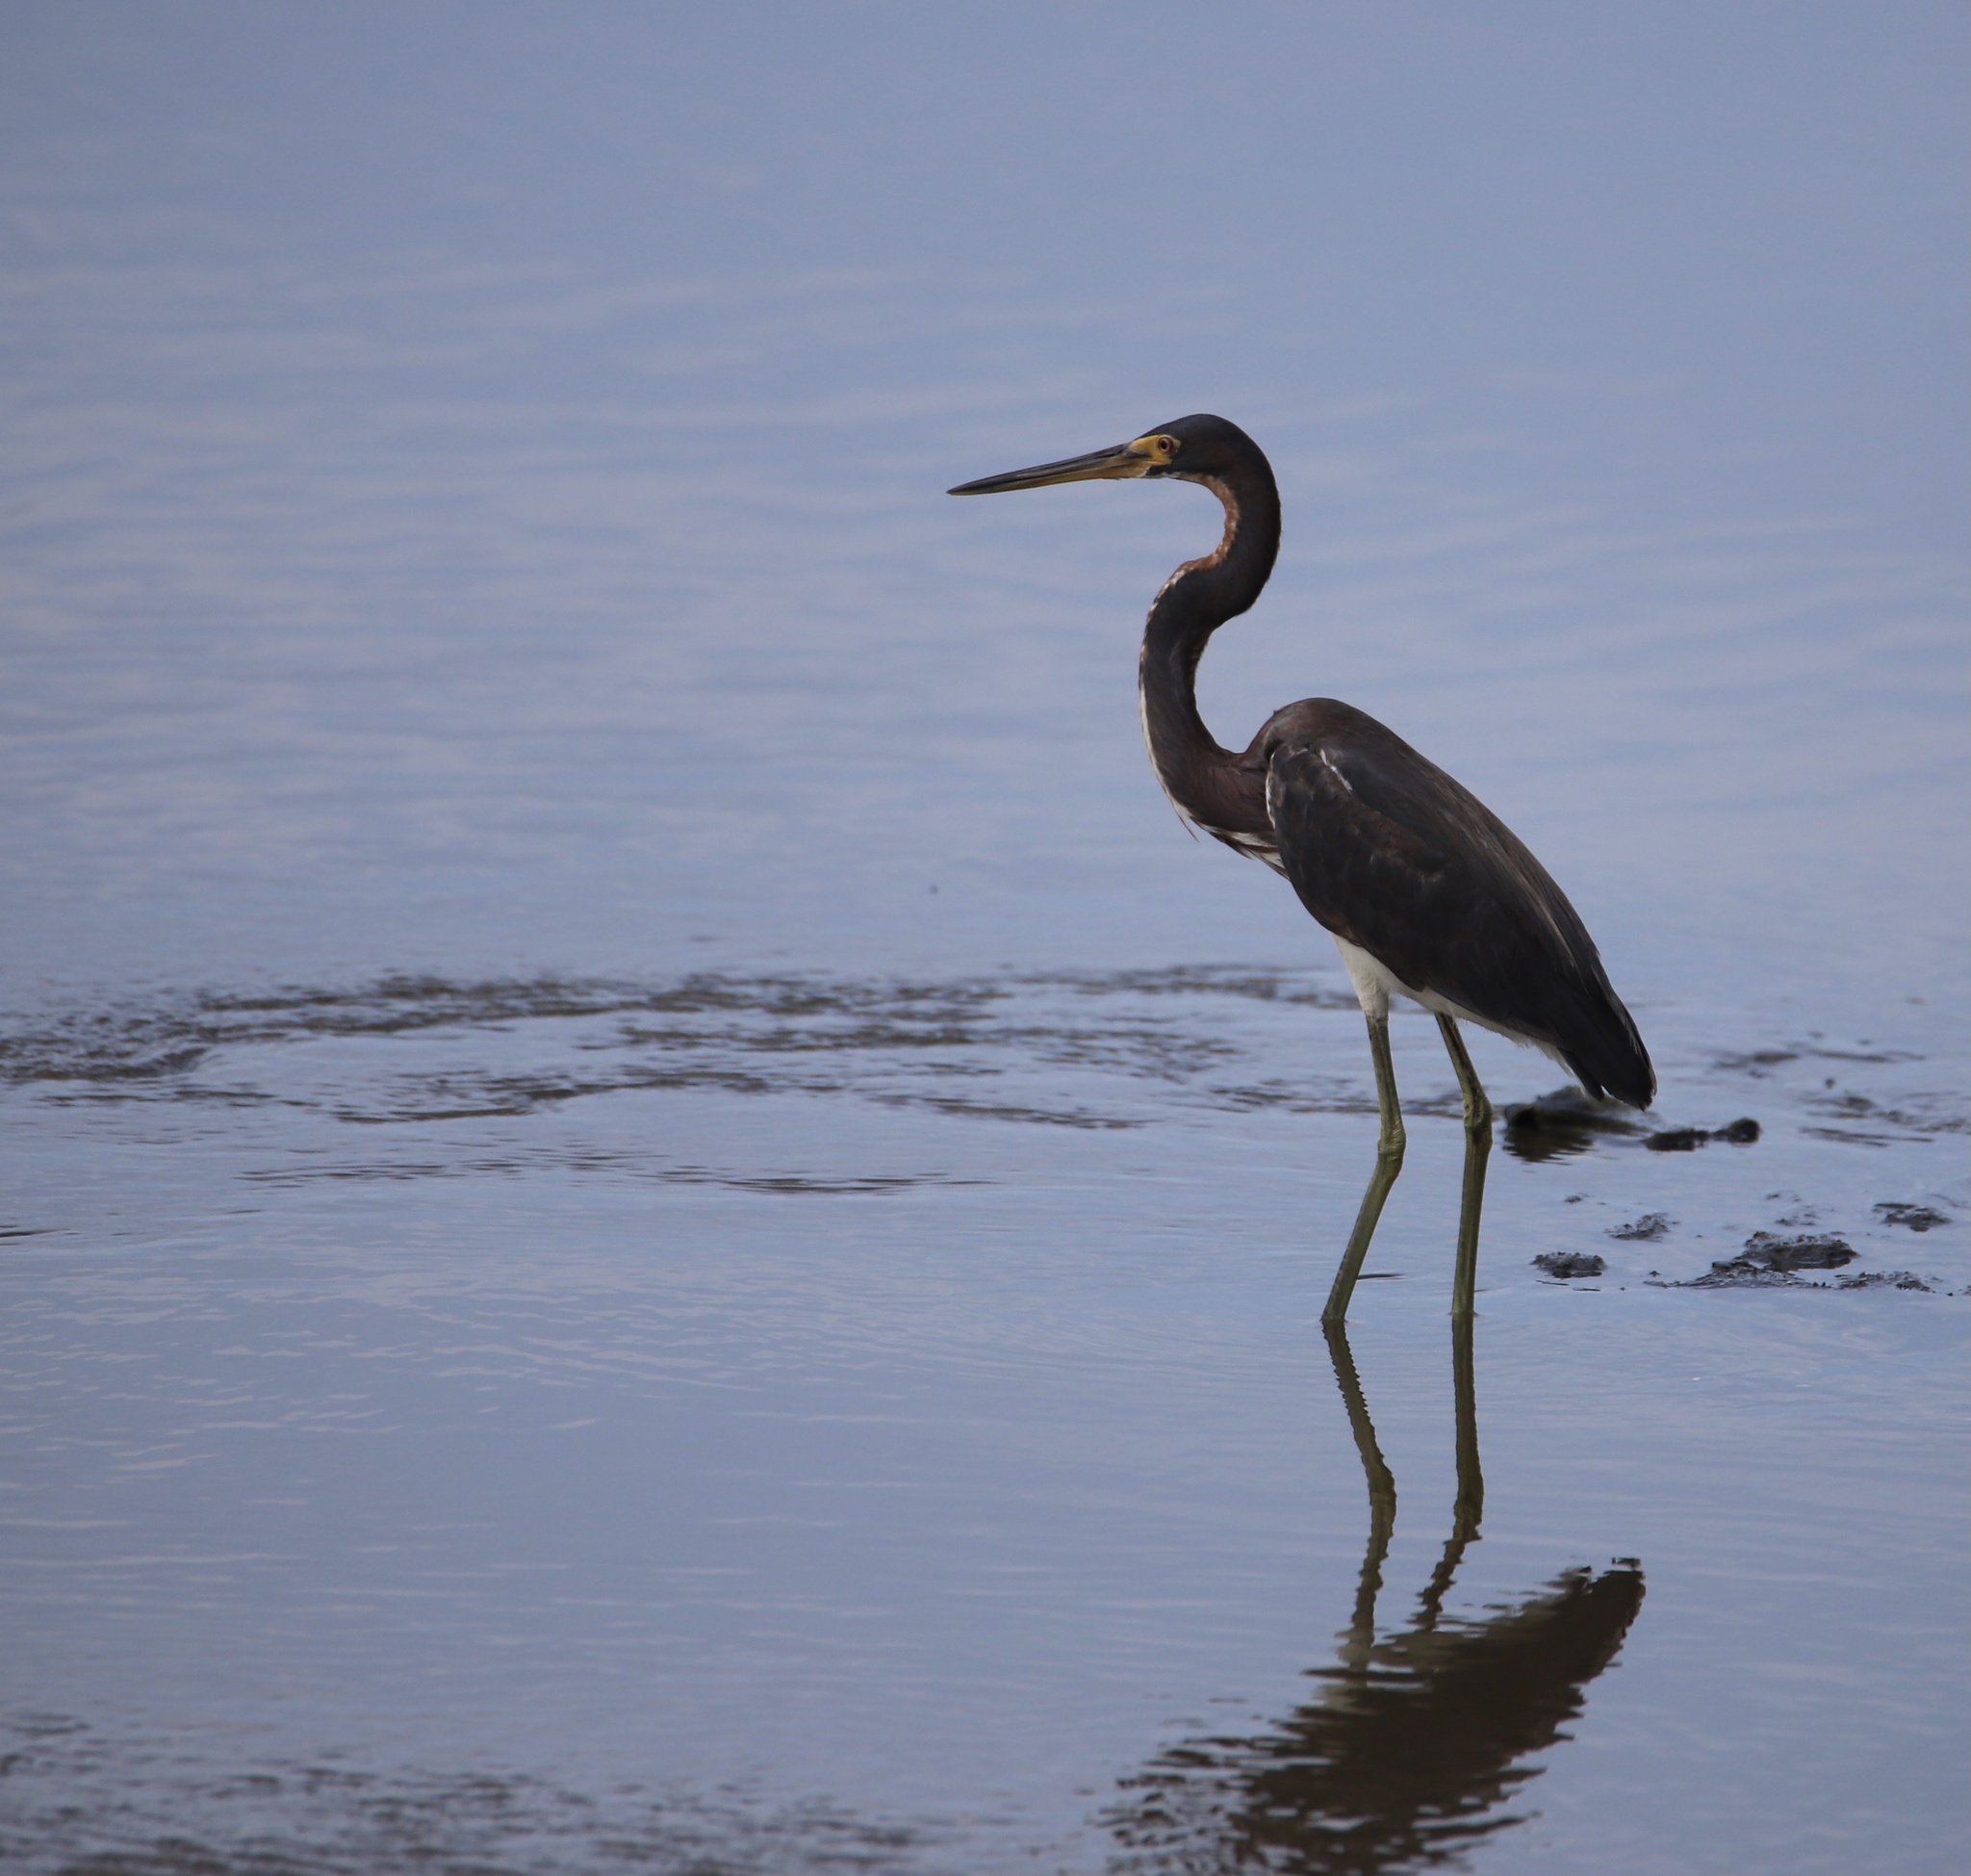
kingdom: Animalia
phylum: Chordata
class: Aves
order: Pelecaniformes
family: Ardeidae
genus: Egretta
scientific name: Egretta tricolor
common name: Tricolored heron
